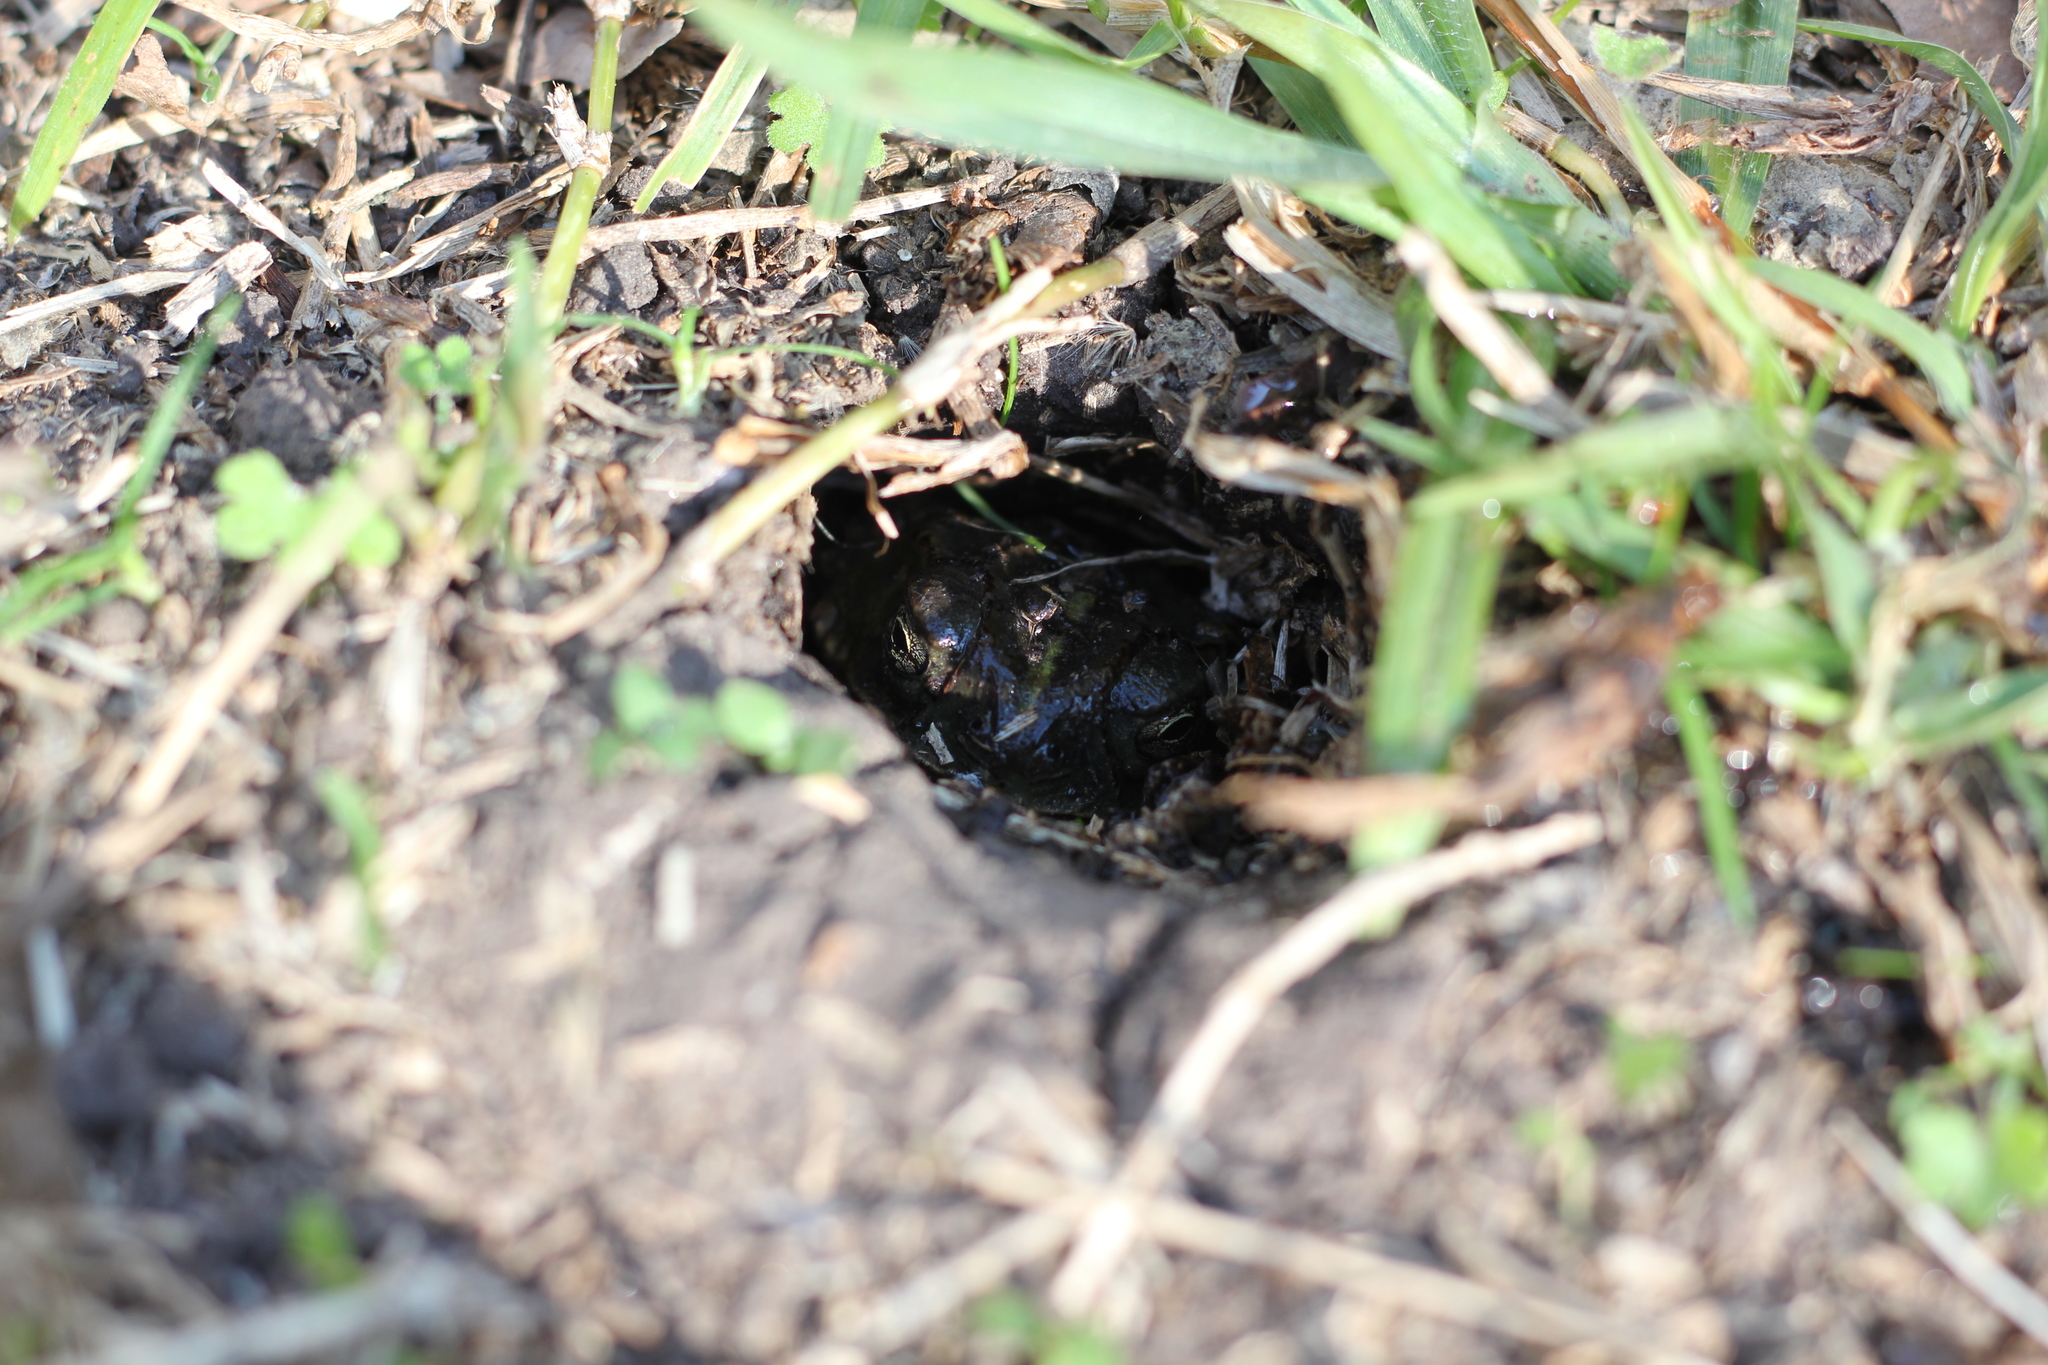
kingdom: Animalia
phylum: Chordata
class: Amphibia
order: Anura
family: Bufonidae
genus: Rhinella
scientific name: Rhinella dorbignyi
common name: D´orbigny’s toad
